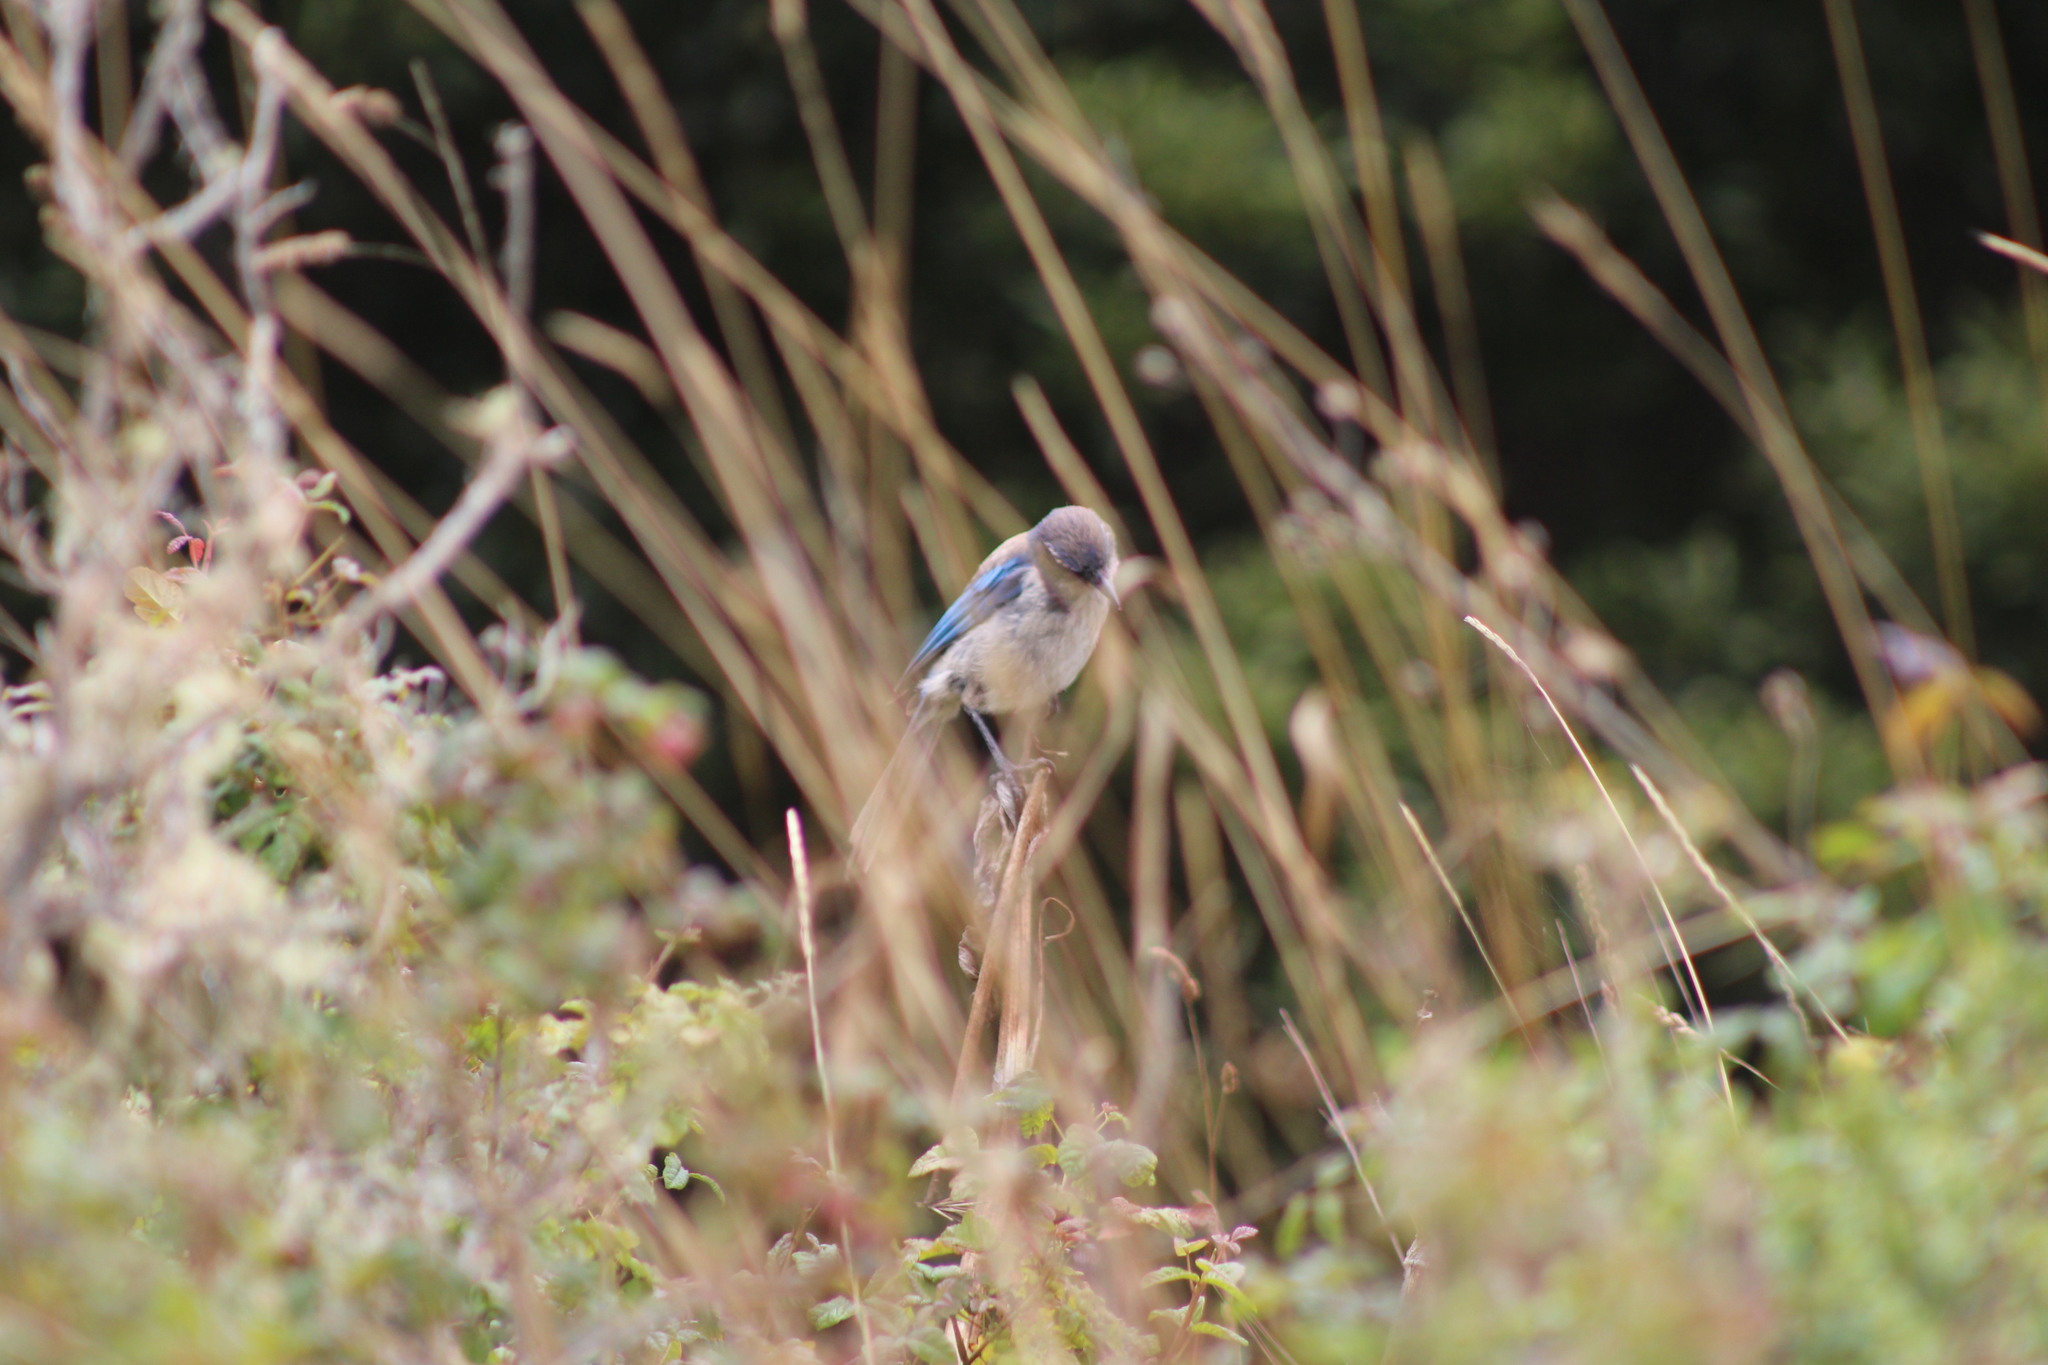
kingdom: Animalia
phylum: Chordata
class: Aves
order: Passeriformes
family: Corvidae
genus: Aphelocoma
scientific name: Aphelocoma californica
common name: California scrub-jay
